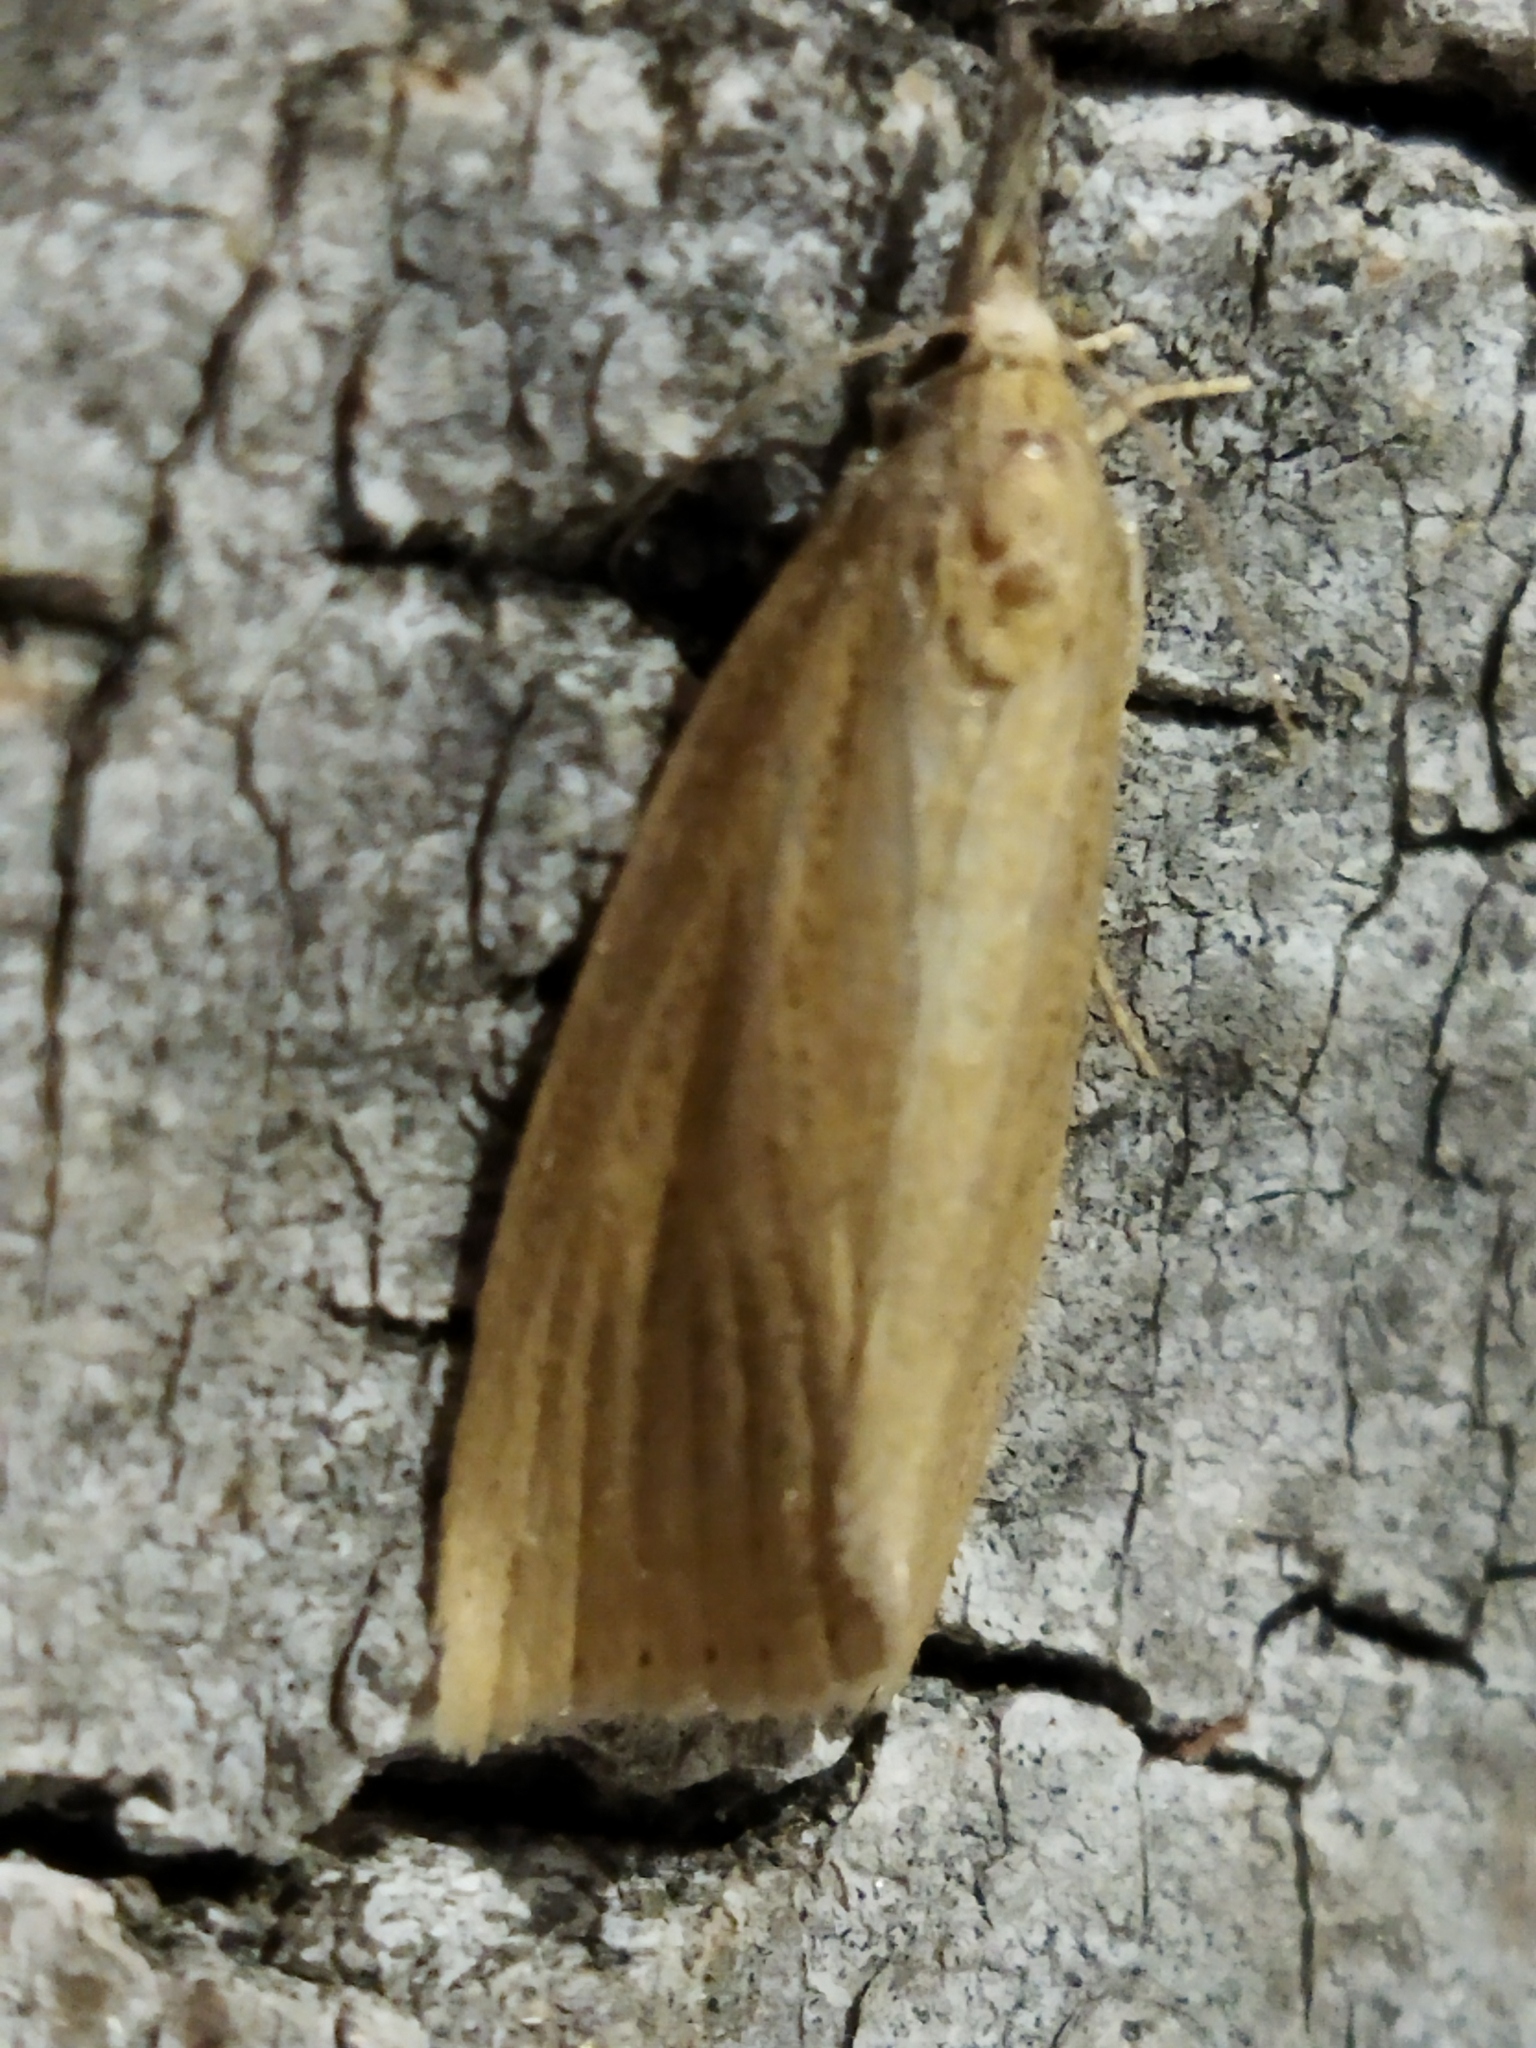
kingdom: Animalia
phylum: Arthropoda
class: Insecta
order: Lepidoptera
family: Crambidae
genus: Chilo
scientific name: Chilo
